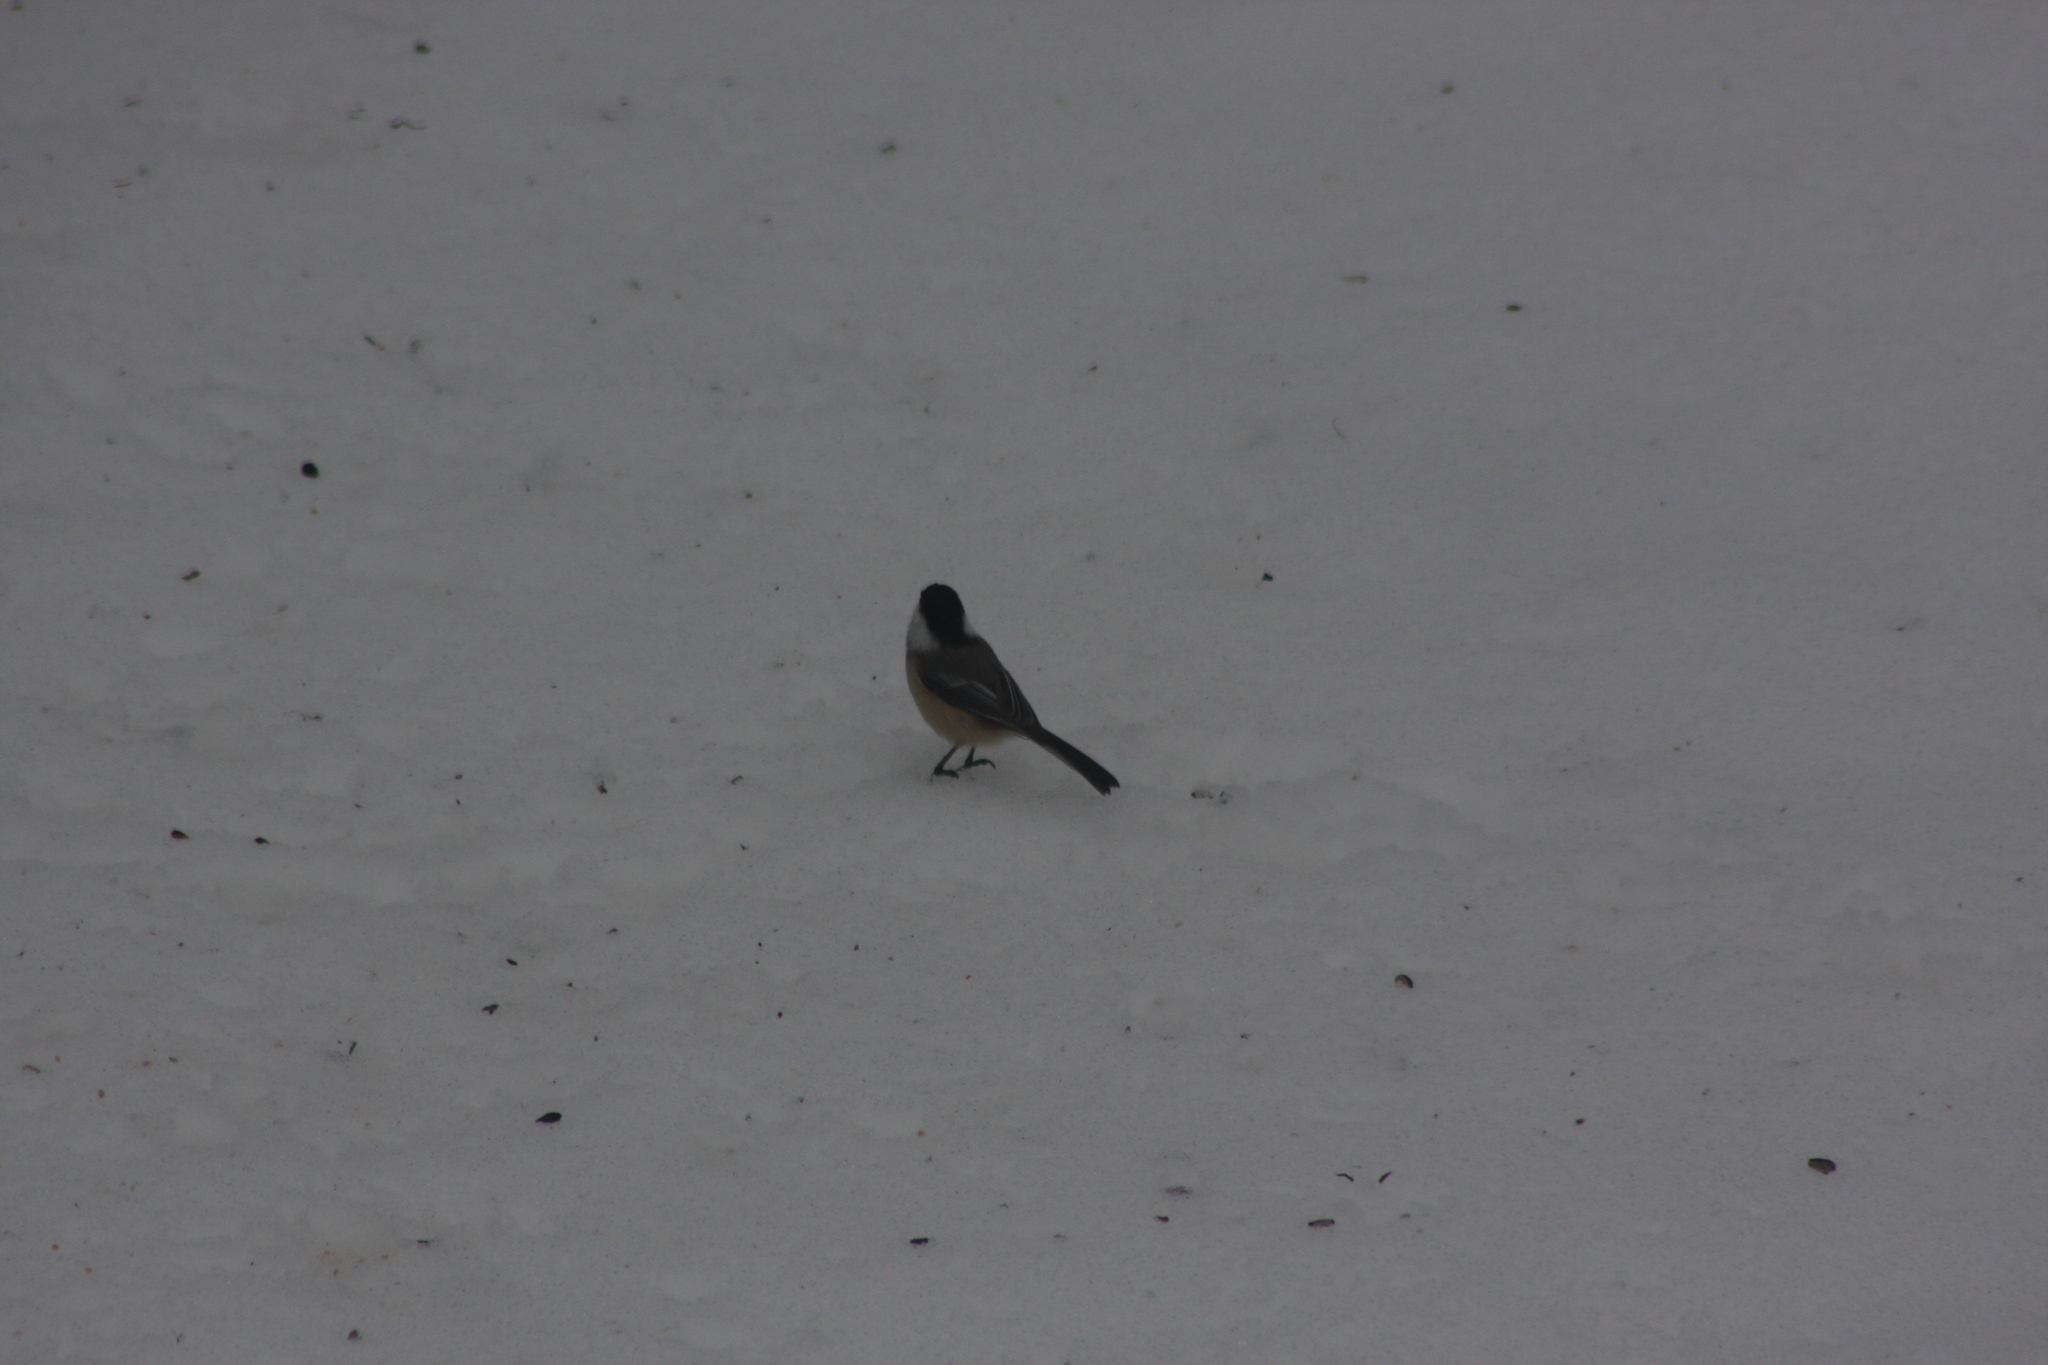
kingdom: Animalia
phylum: Chordata
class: Aves
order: Passeriformes
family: Paridae
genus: Poecile
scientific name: Poecile atricapillus
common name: Black-capped chickadee
